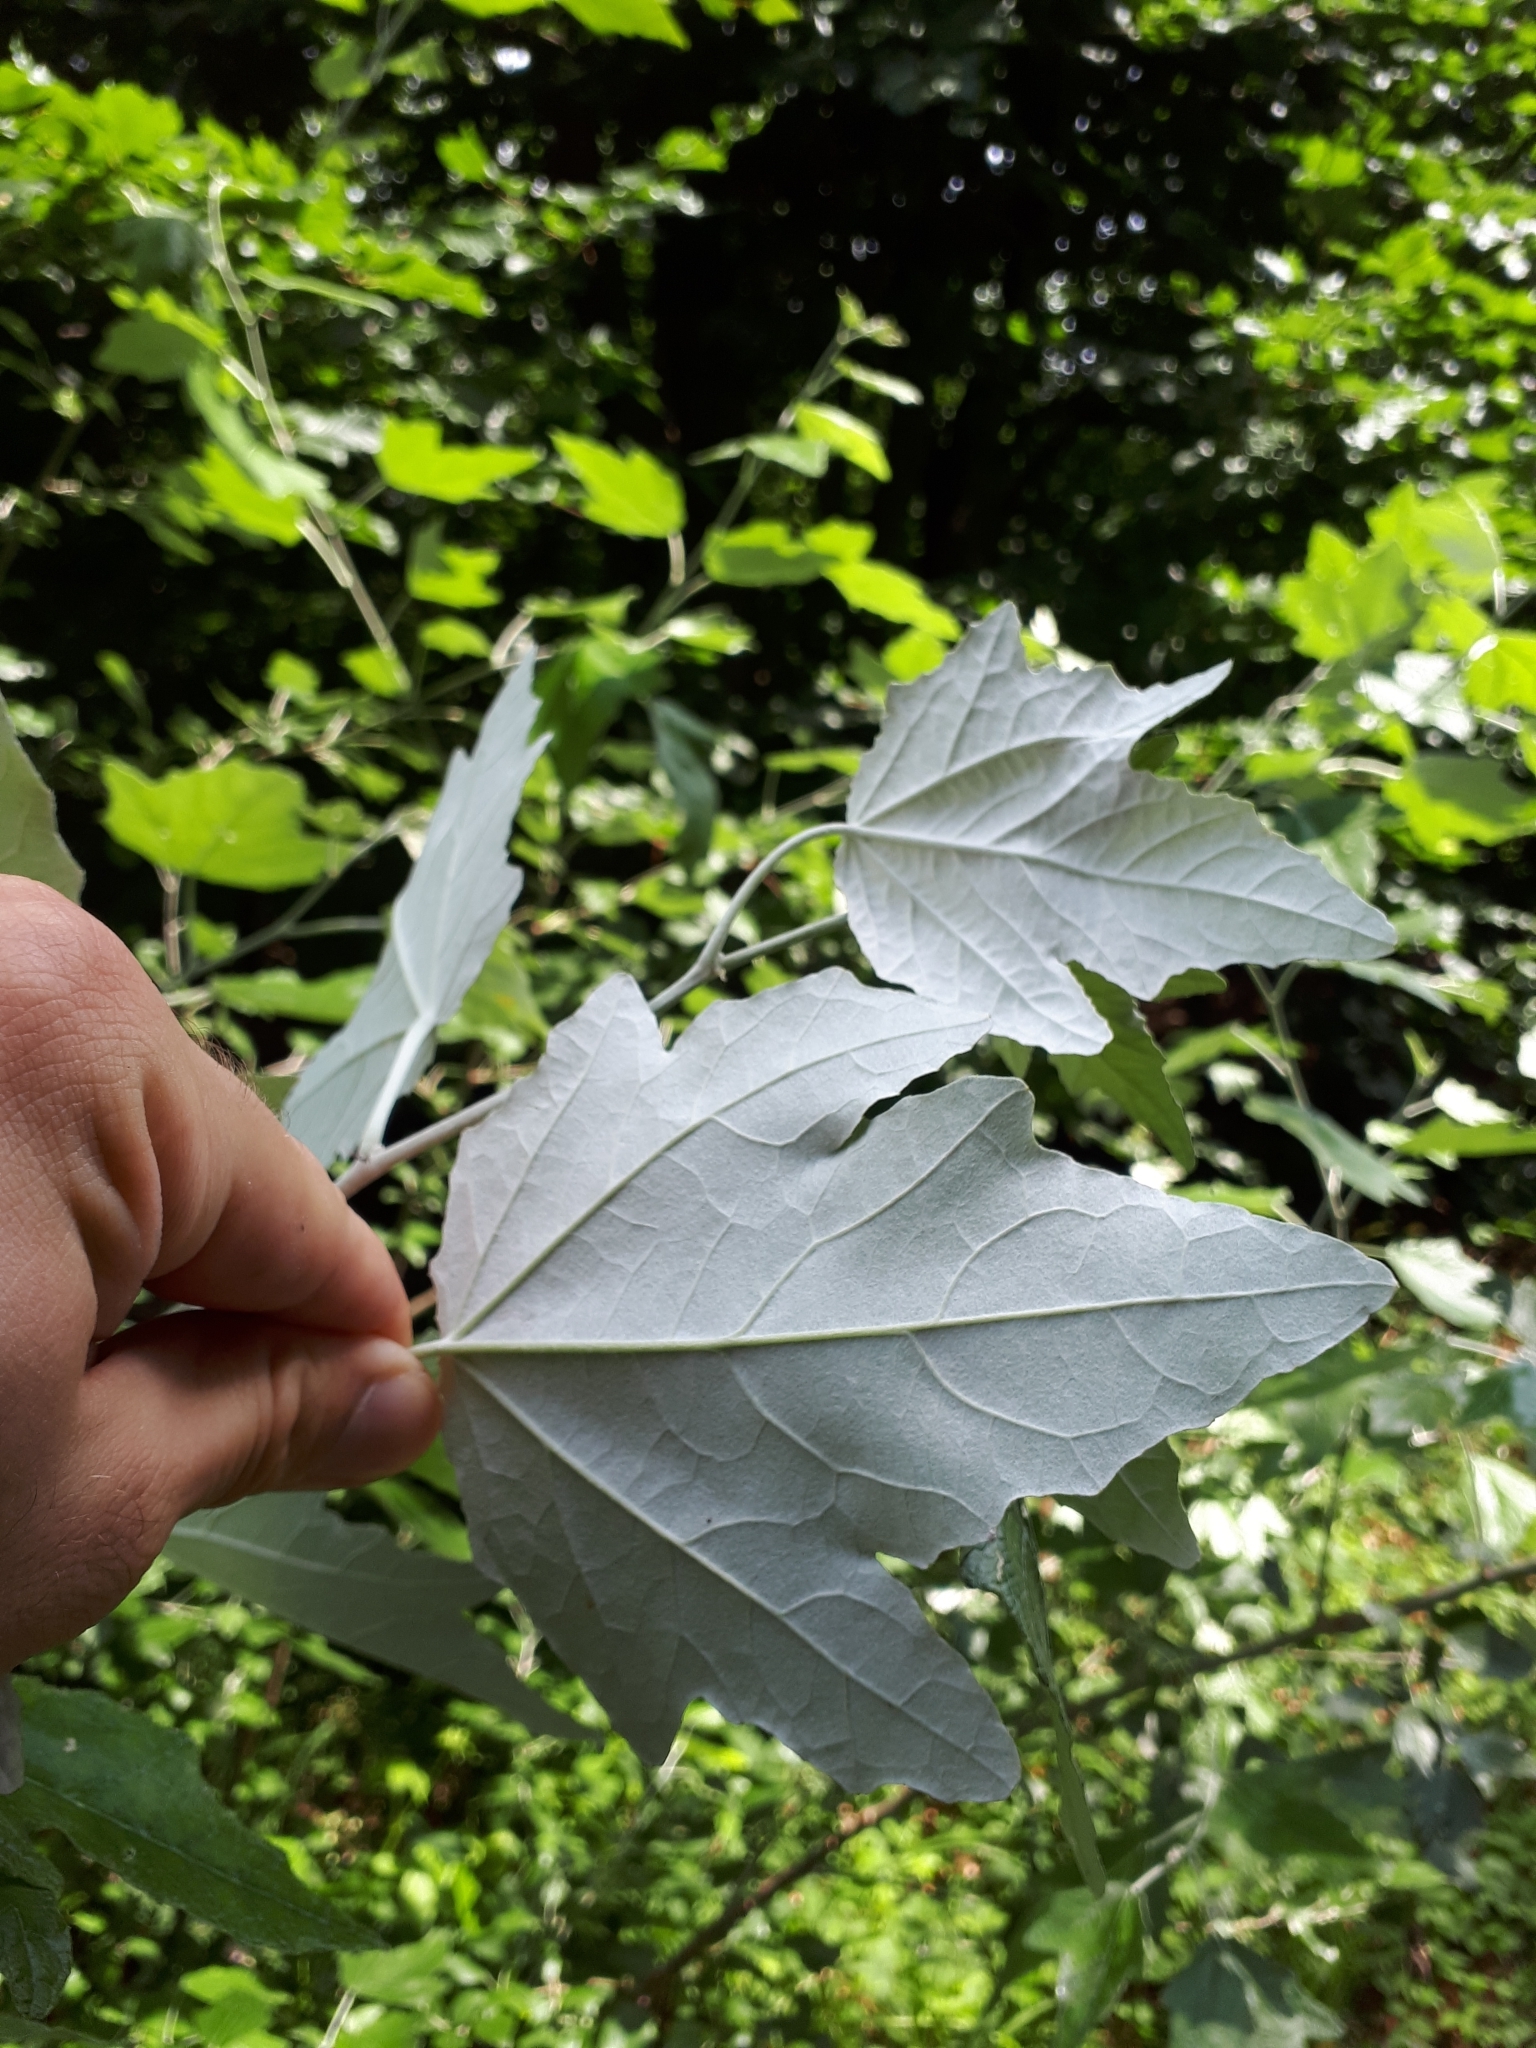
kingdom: Plantae
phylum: Tracheophyta
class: Magnoliopsida
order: Malpighiales
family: Salicaceae
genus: Populus
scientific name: Populus alba
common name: White poplar
